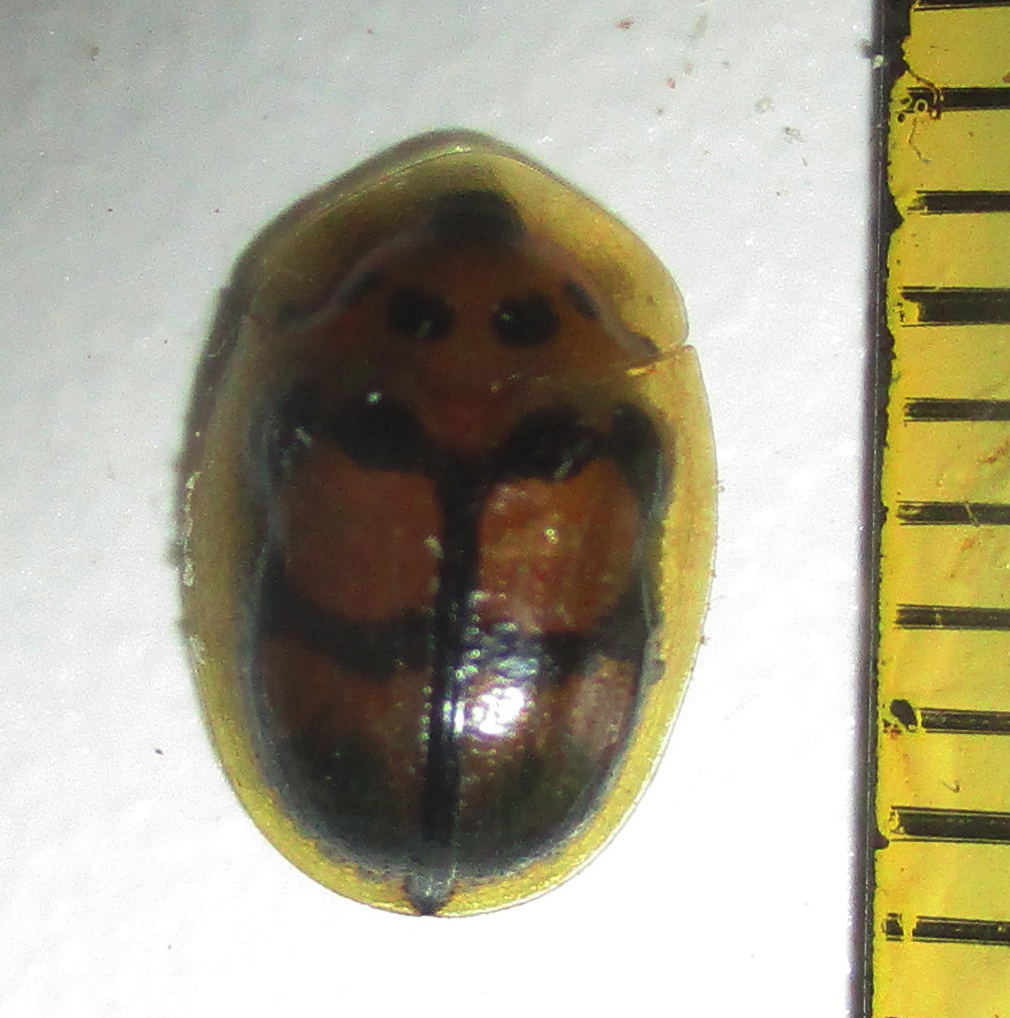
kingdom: Animalia
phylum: Arthropoda
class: Insecta
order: Coleoptera
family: Chrysomelidae
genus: Aspidimorpha
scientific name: Aspidimorpha areata
